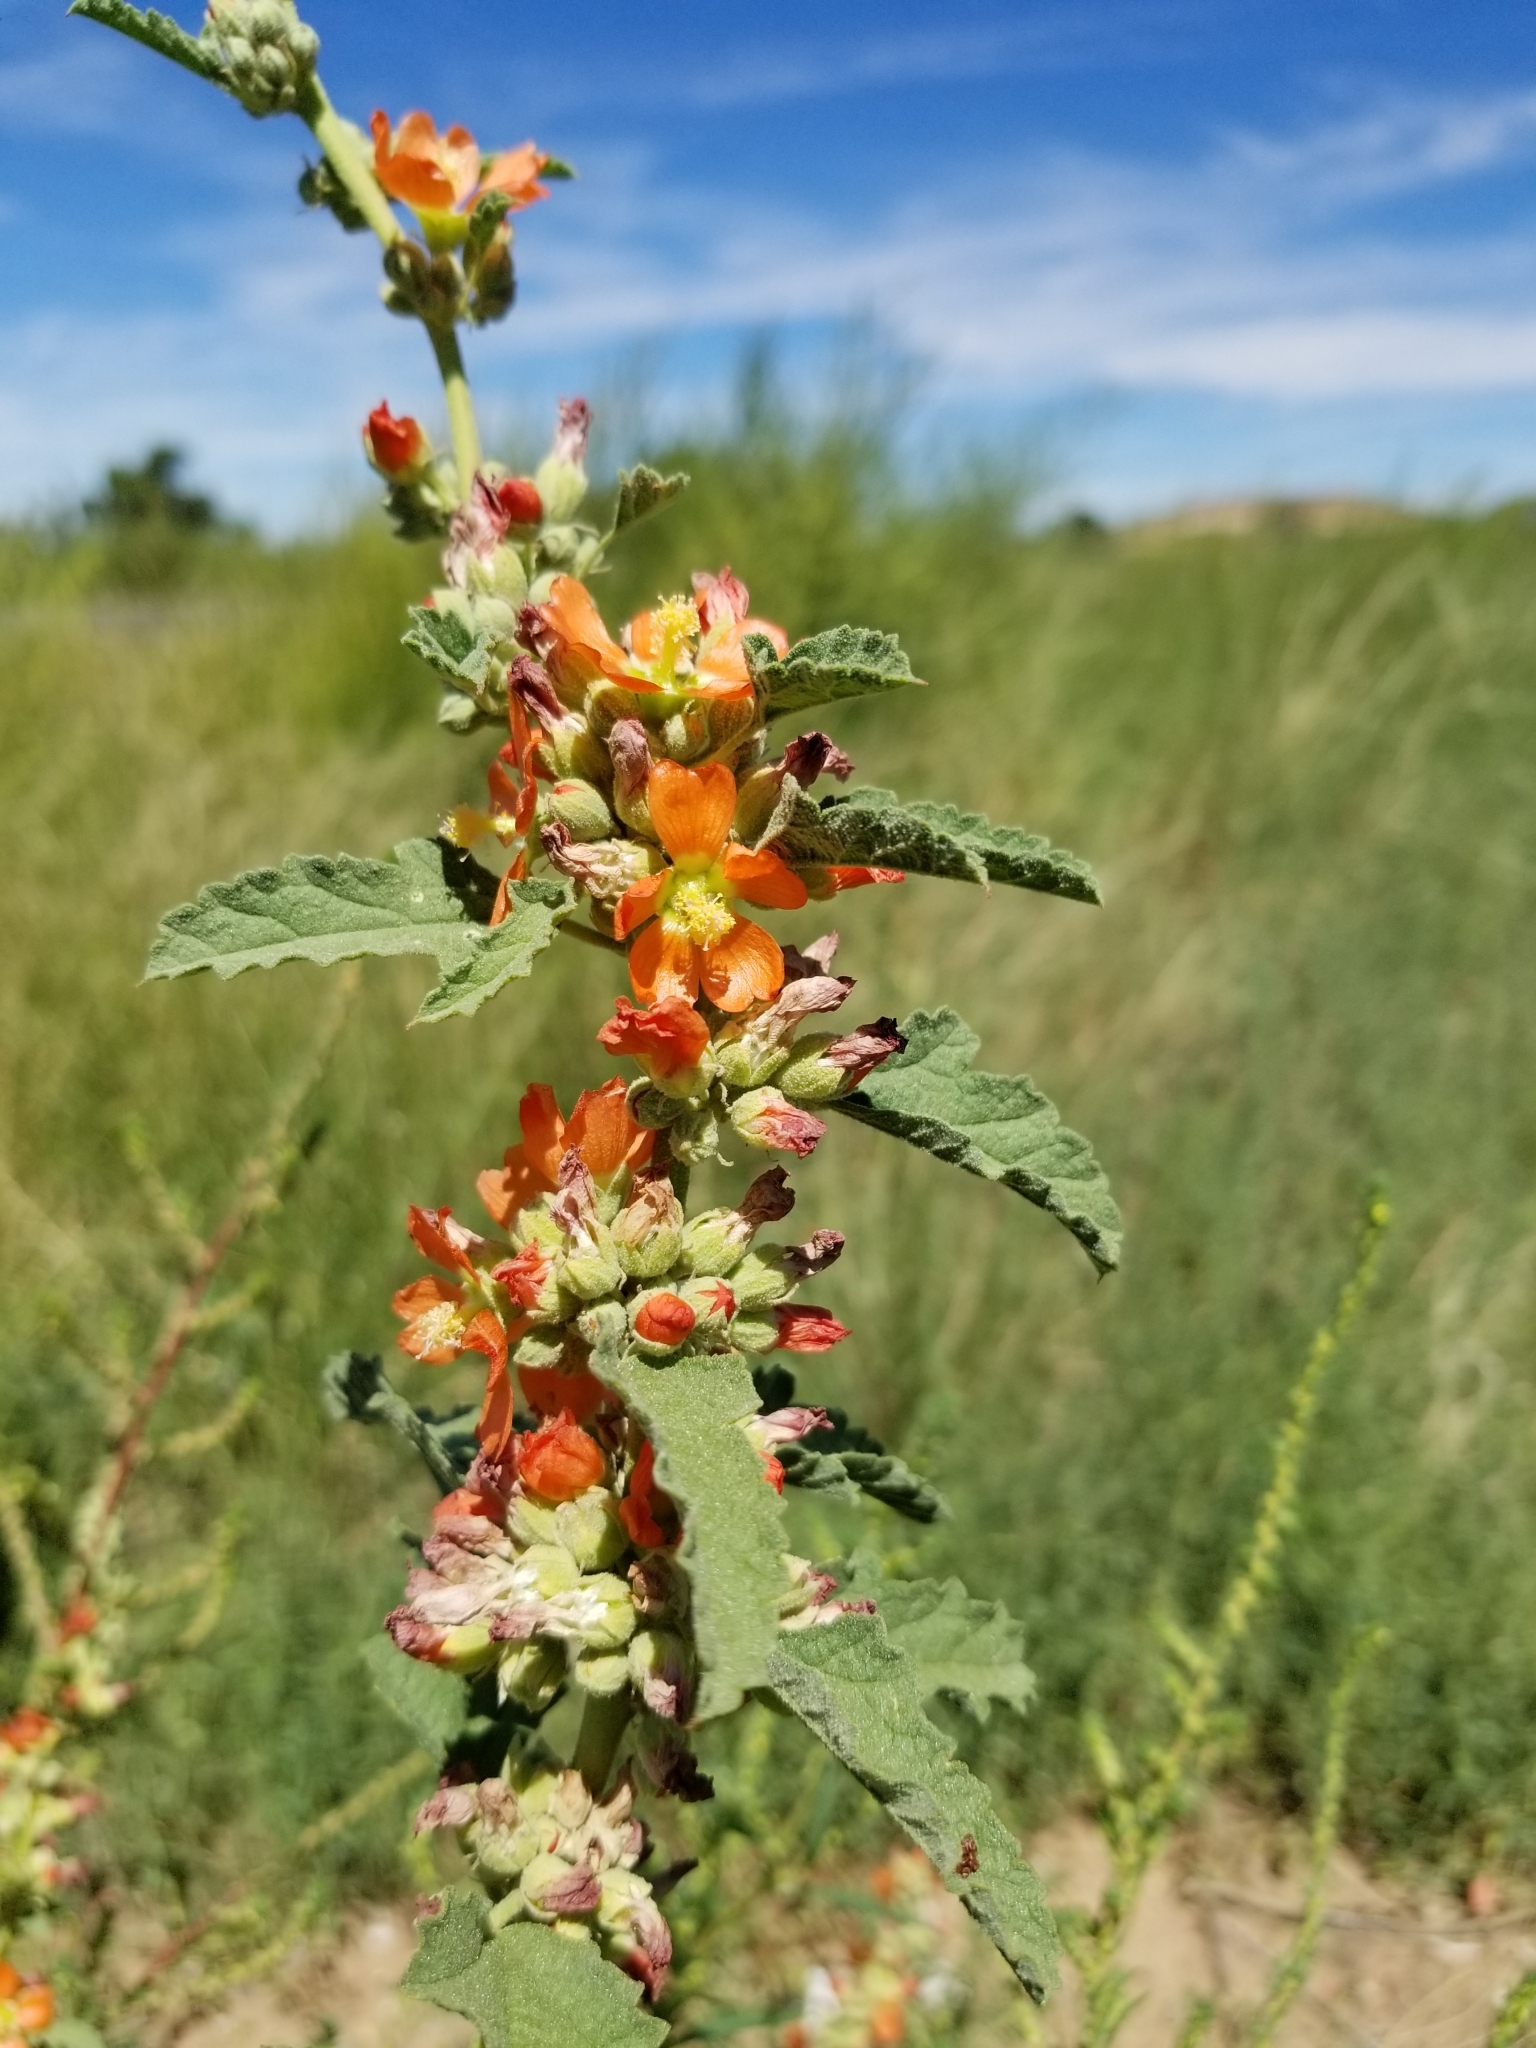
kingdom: Plantae
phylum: Tracheophyta
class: Magnoliopsida
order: Malvales
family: Malvaceae
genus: Sphaeralcea
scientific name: Sphaeralcea angustifolia
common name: Copper globe-mallow
